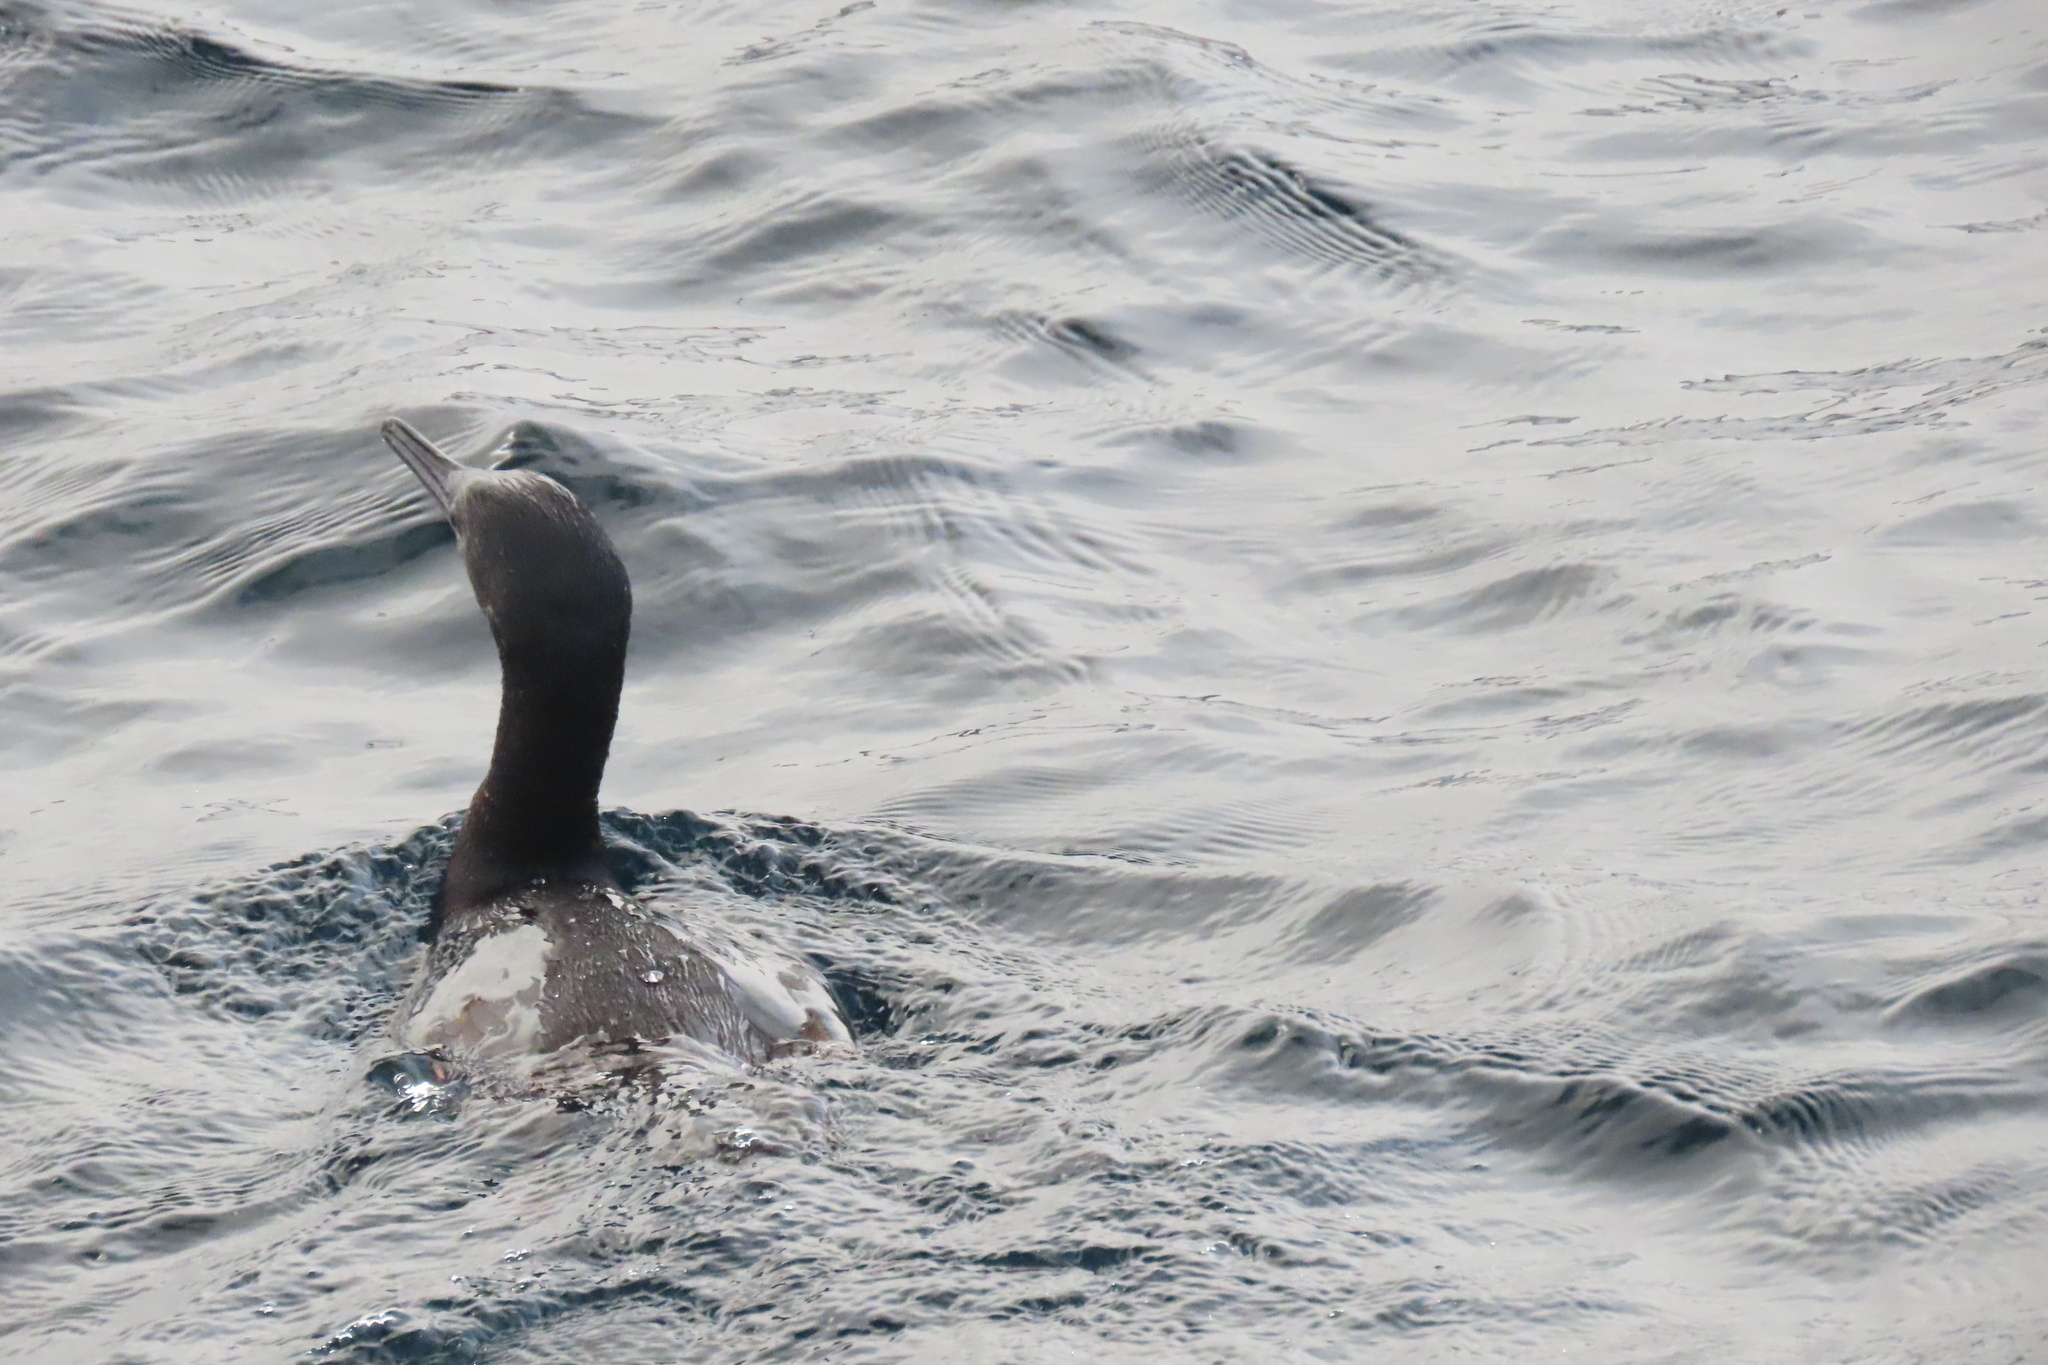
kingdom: Animalia
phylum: Chordata
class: Aves
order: Suliformes
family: Phalacrocoracidae
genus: Urile
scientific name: Urile penicillatus
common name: Brandt's cormorant
